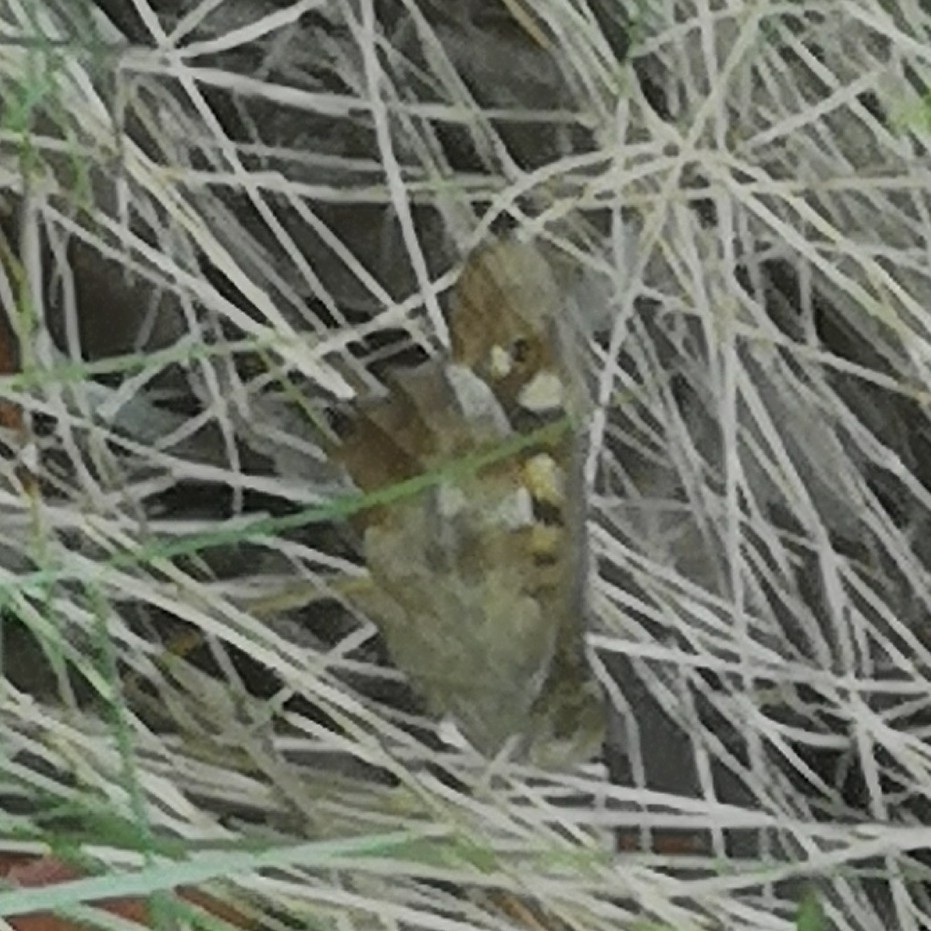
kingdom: Animalia
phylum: Arthropoda
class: Insecta
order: Lepidoptera
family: Nymphalidae
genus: Pararge
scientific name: Pararge aegeria
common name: Speckled wood
